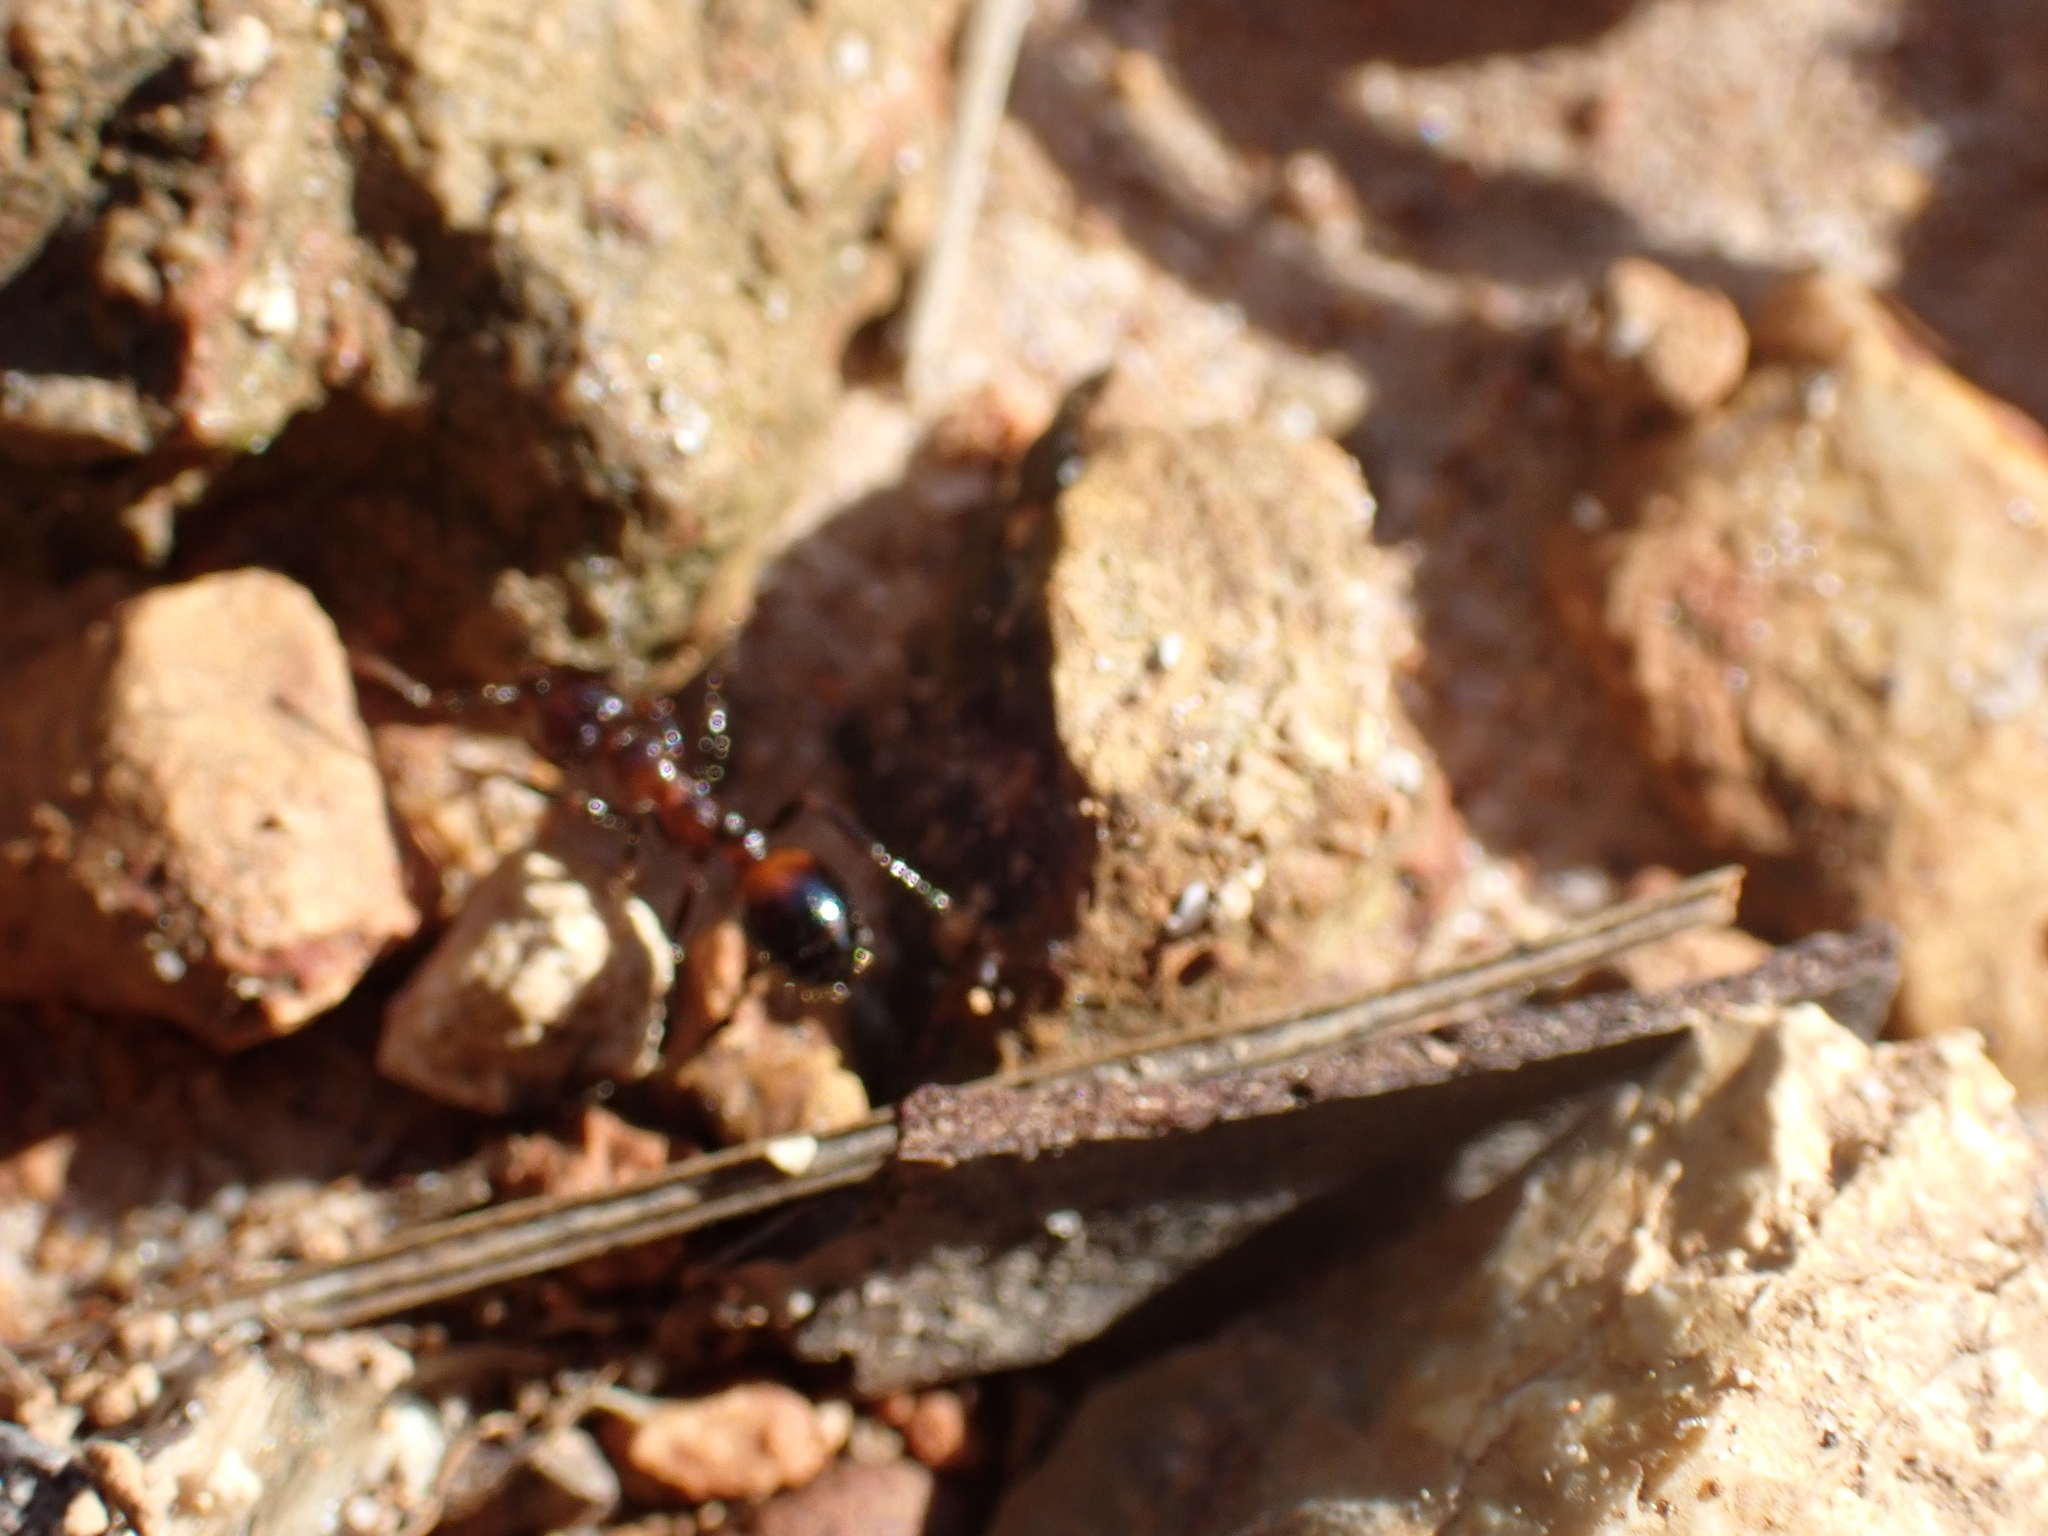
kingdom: Animalia
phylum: Arthropoda
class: Insecta
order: Hymenoptera
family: Formicidae
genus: Solenopsis
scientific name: Solenopsis
